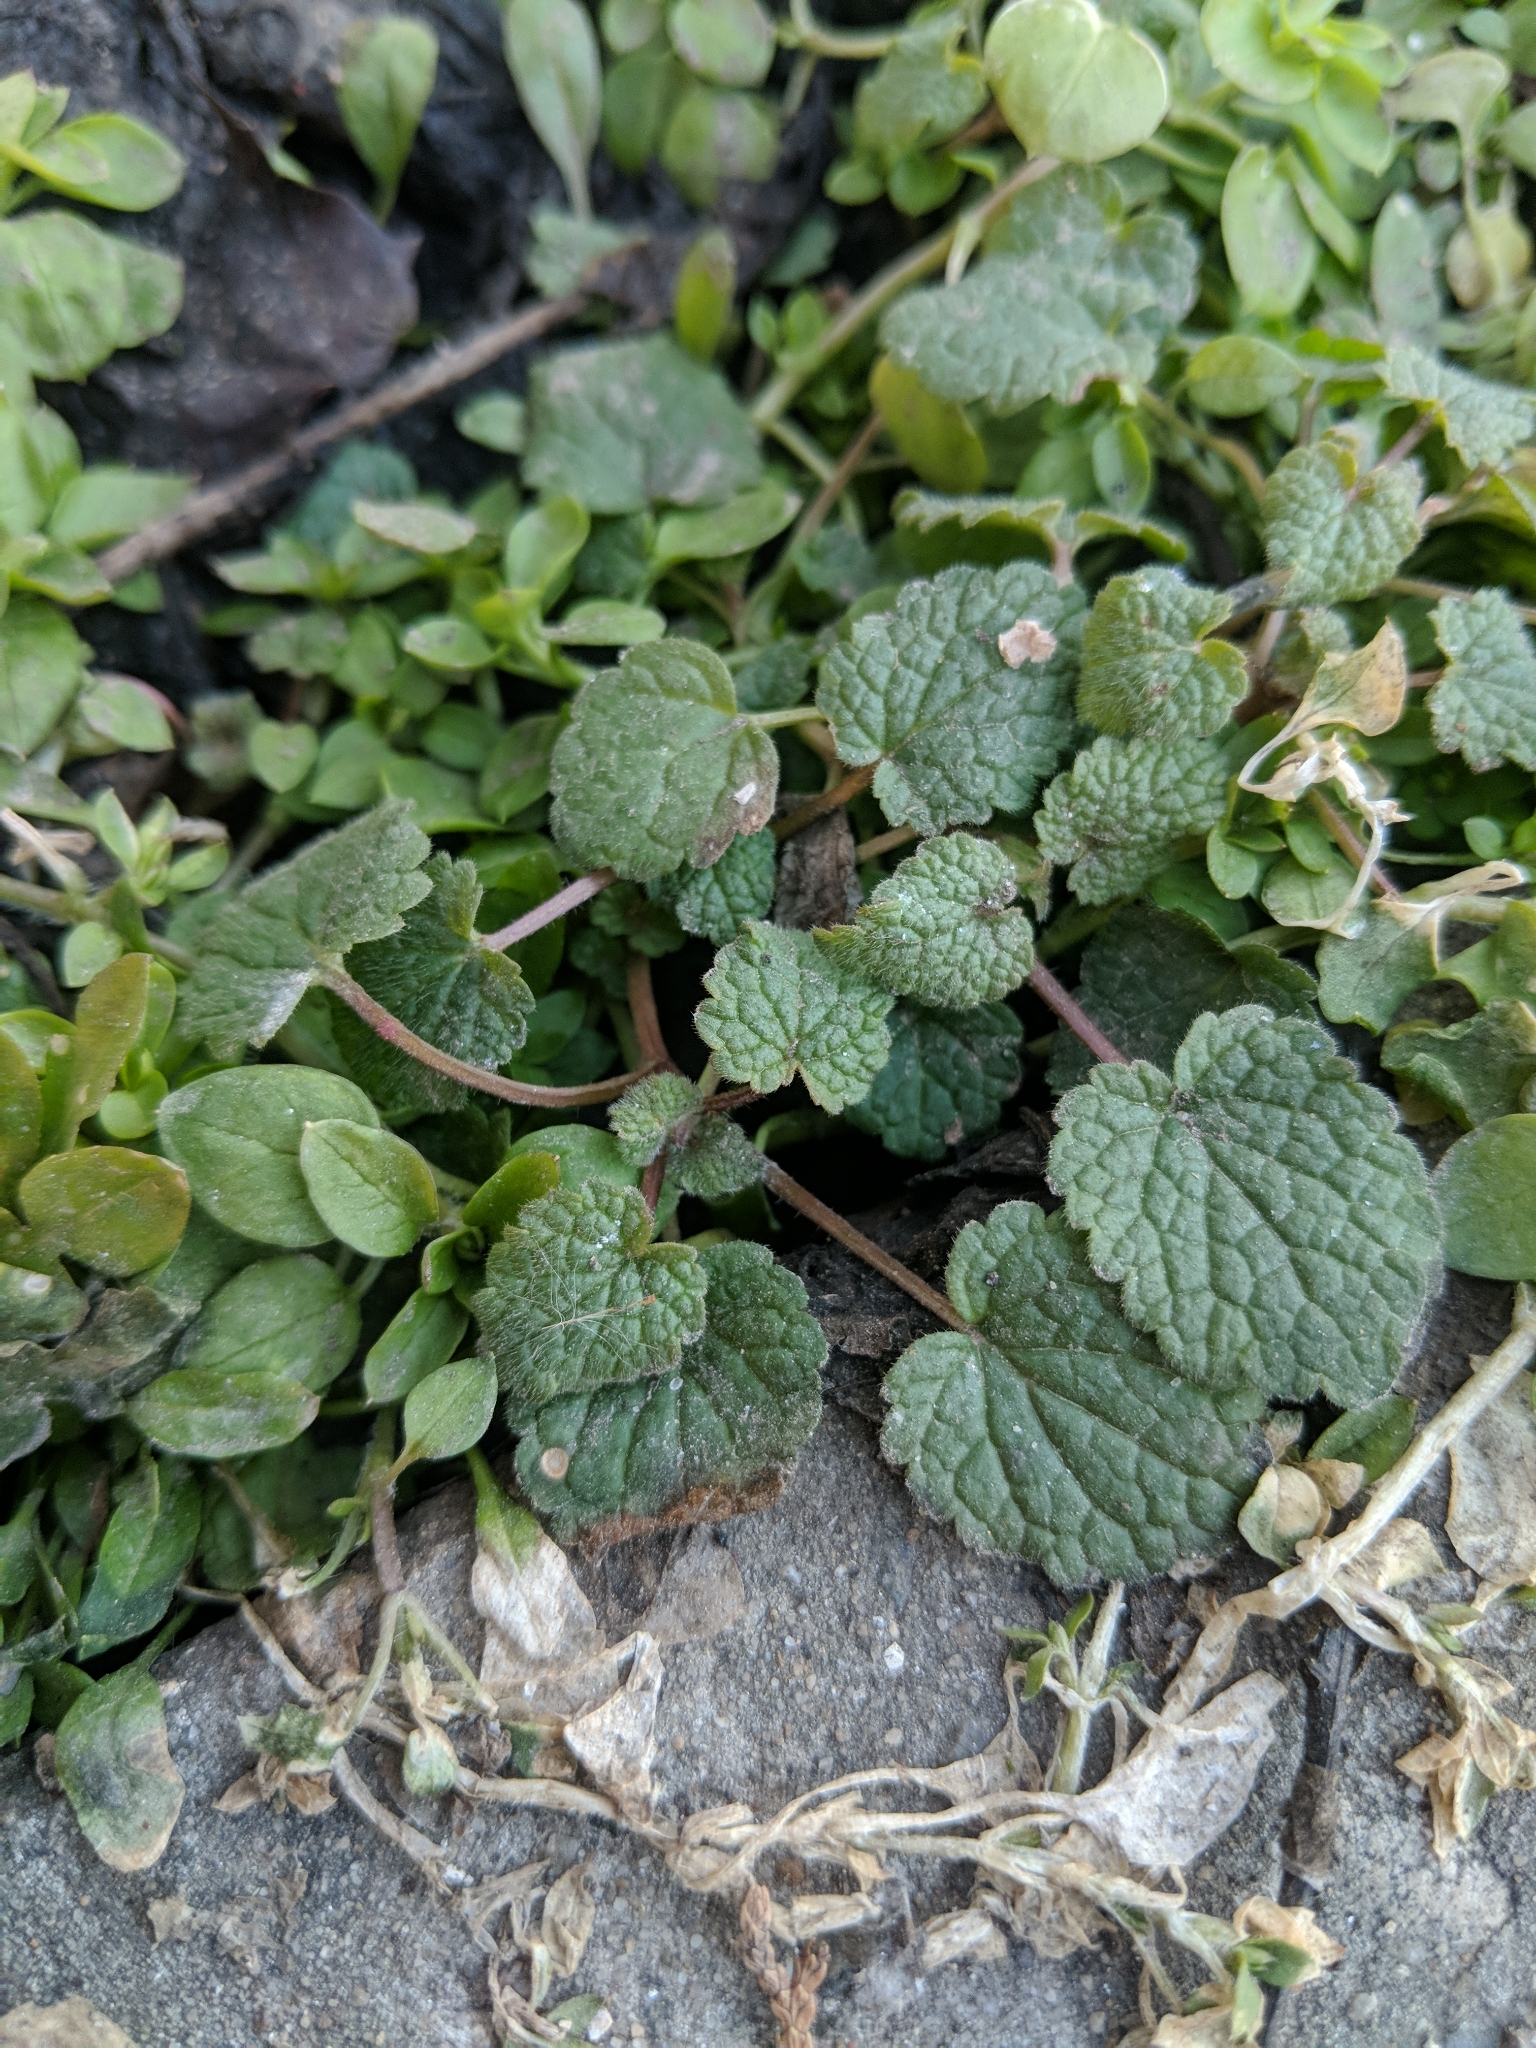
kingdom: Plantae
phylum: Tracheophyta
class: Magnoliopsida
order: Lamiales
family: Lamiaceae
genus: Lamium
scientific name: Lamium purpureum
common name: Red dead-nettle
